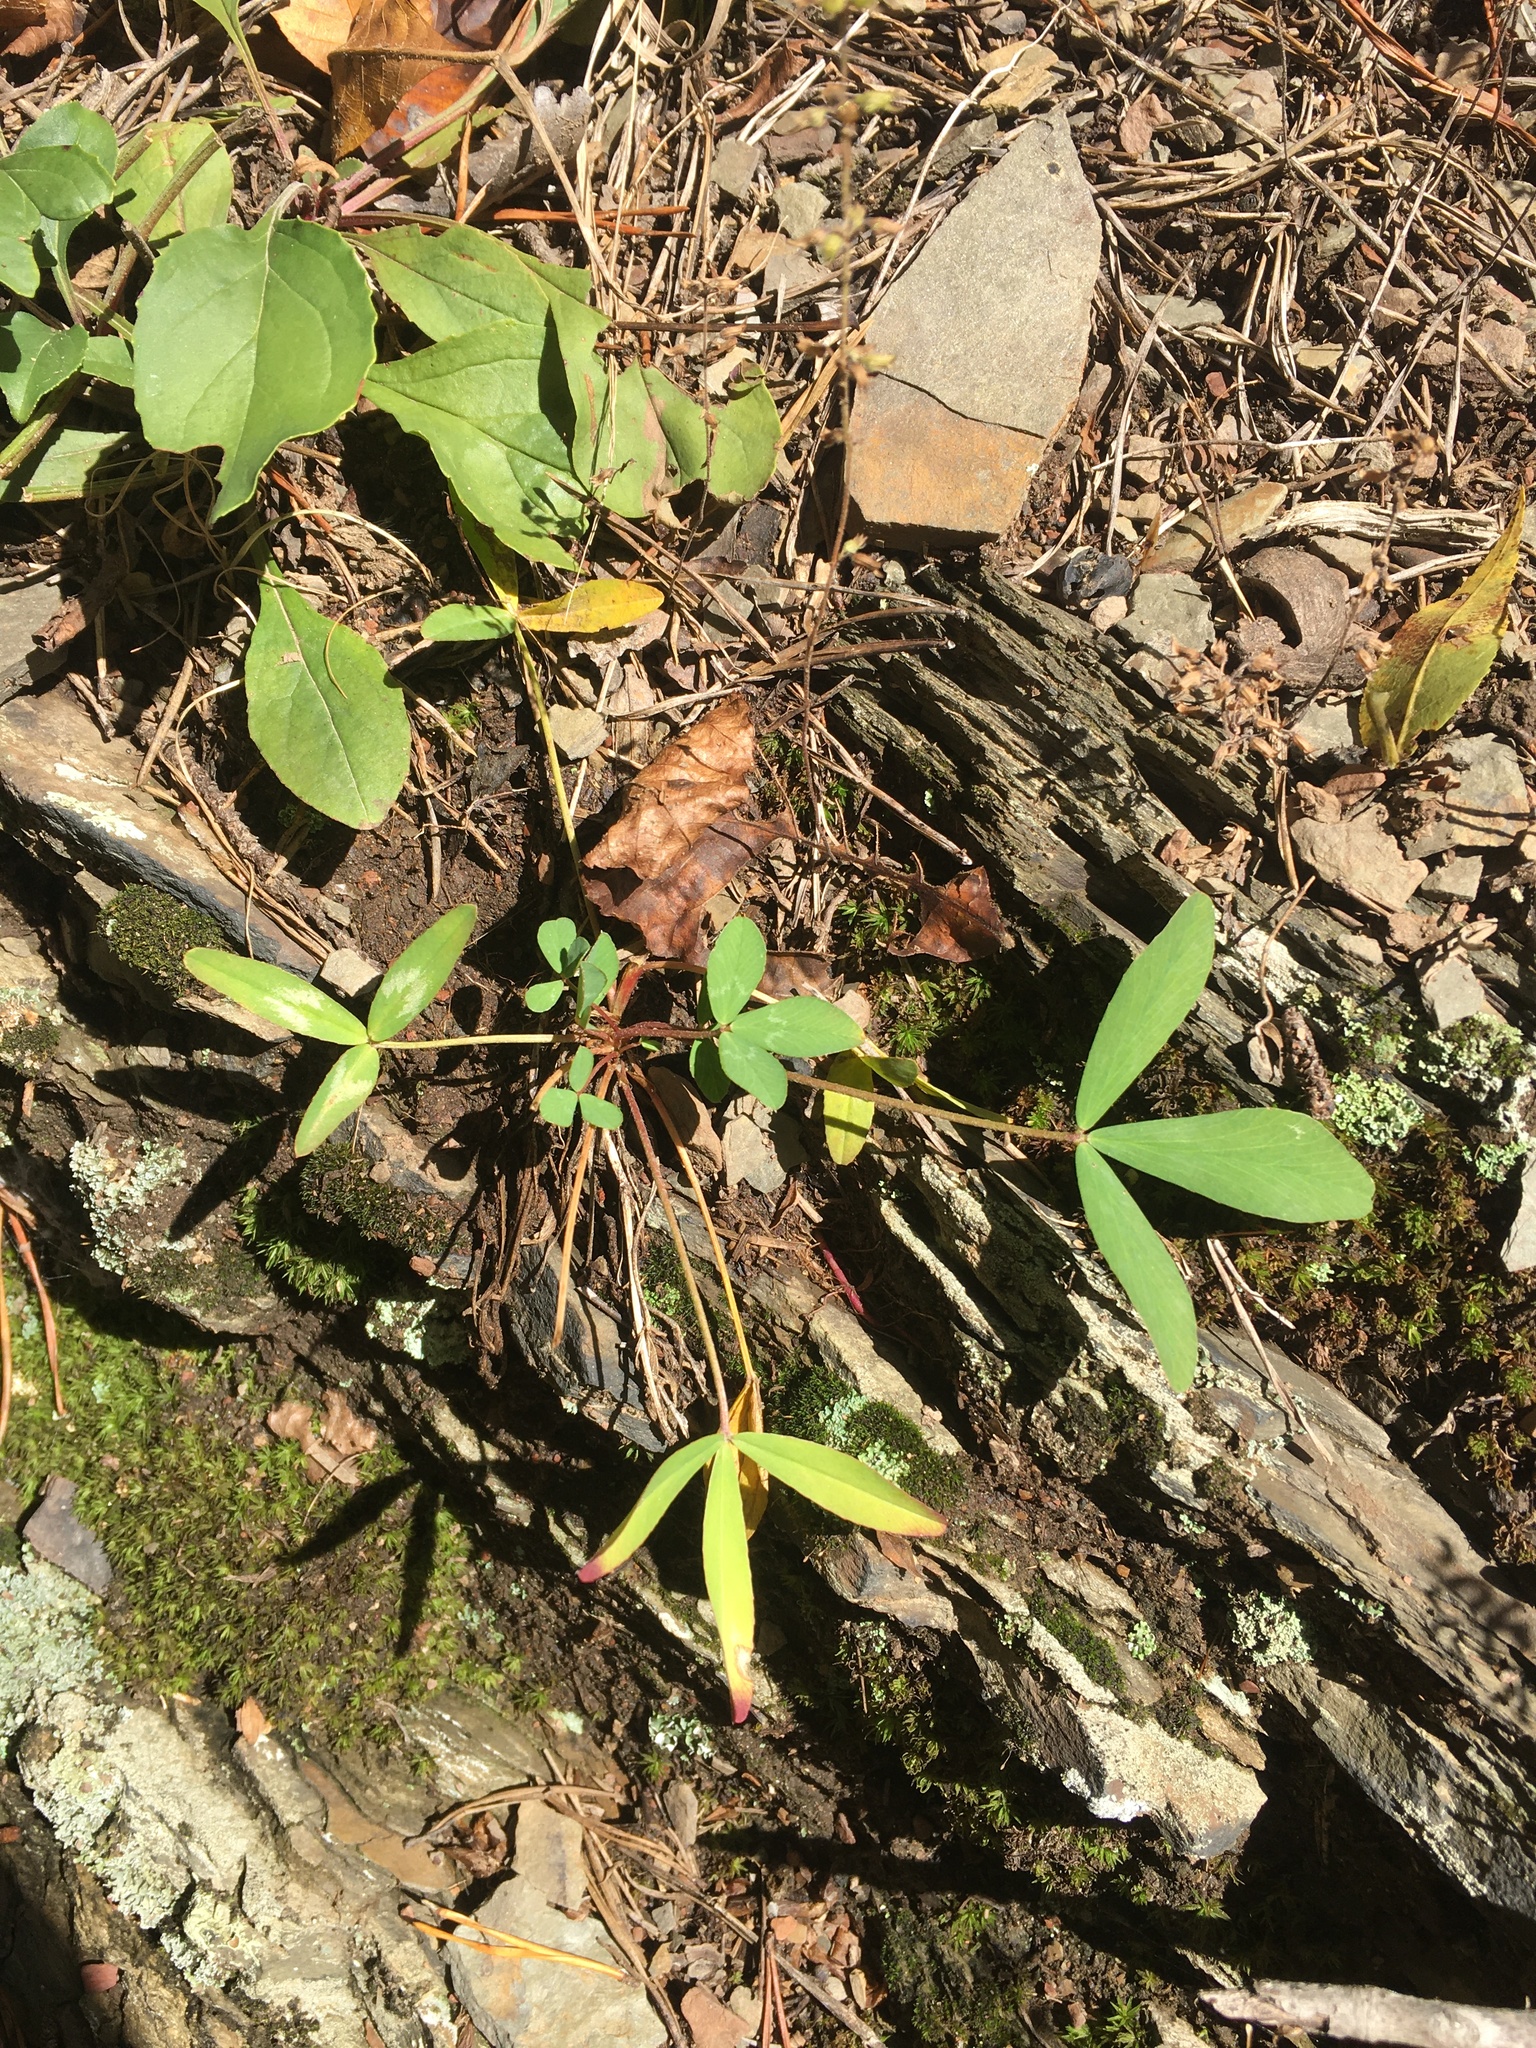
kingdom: Plantae
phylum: Tracheophyta
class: Magnoliopsida
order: Fabales
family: Fabaceae
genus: Trifolium
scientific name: Trifolium virginicum
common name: Kate's mountain clover
